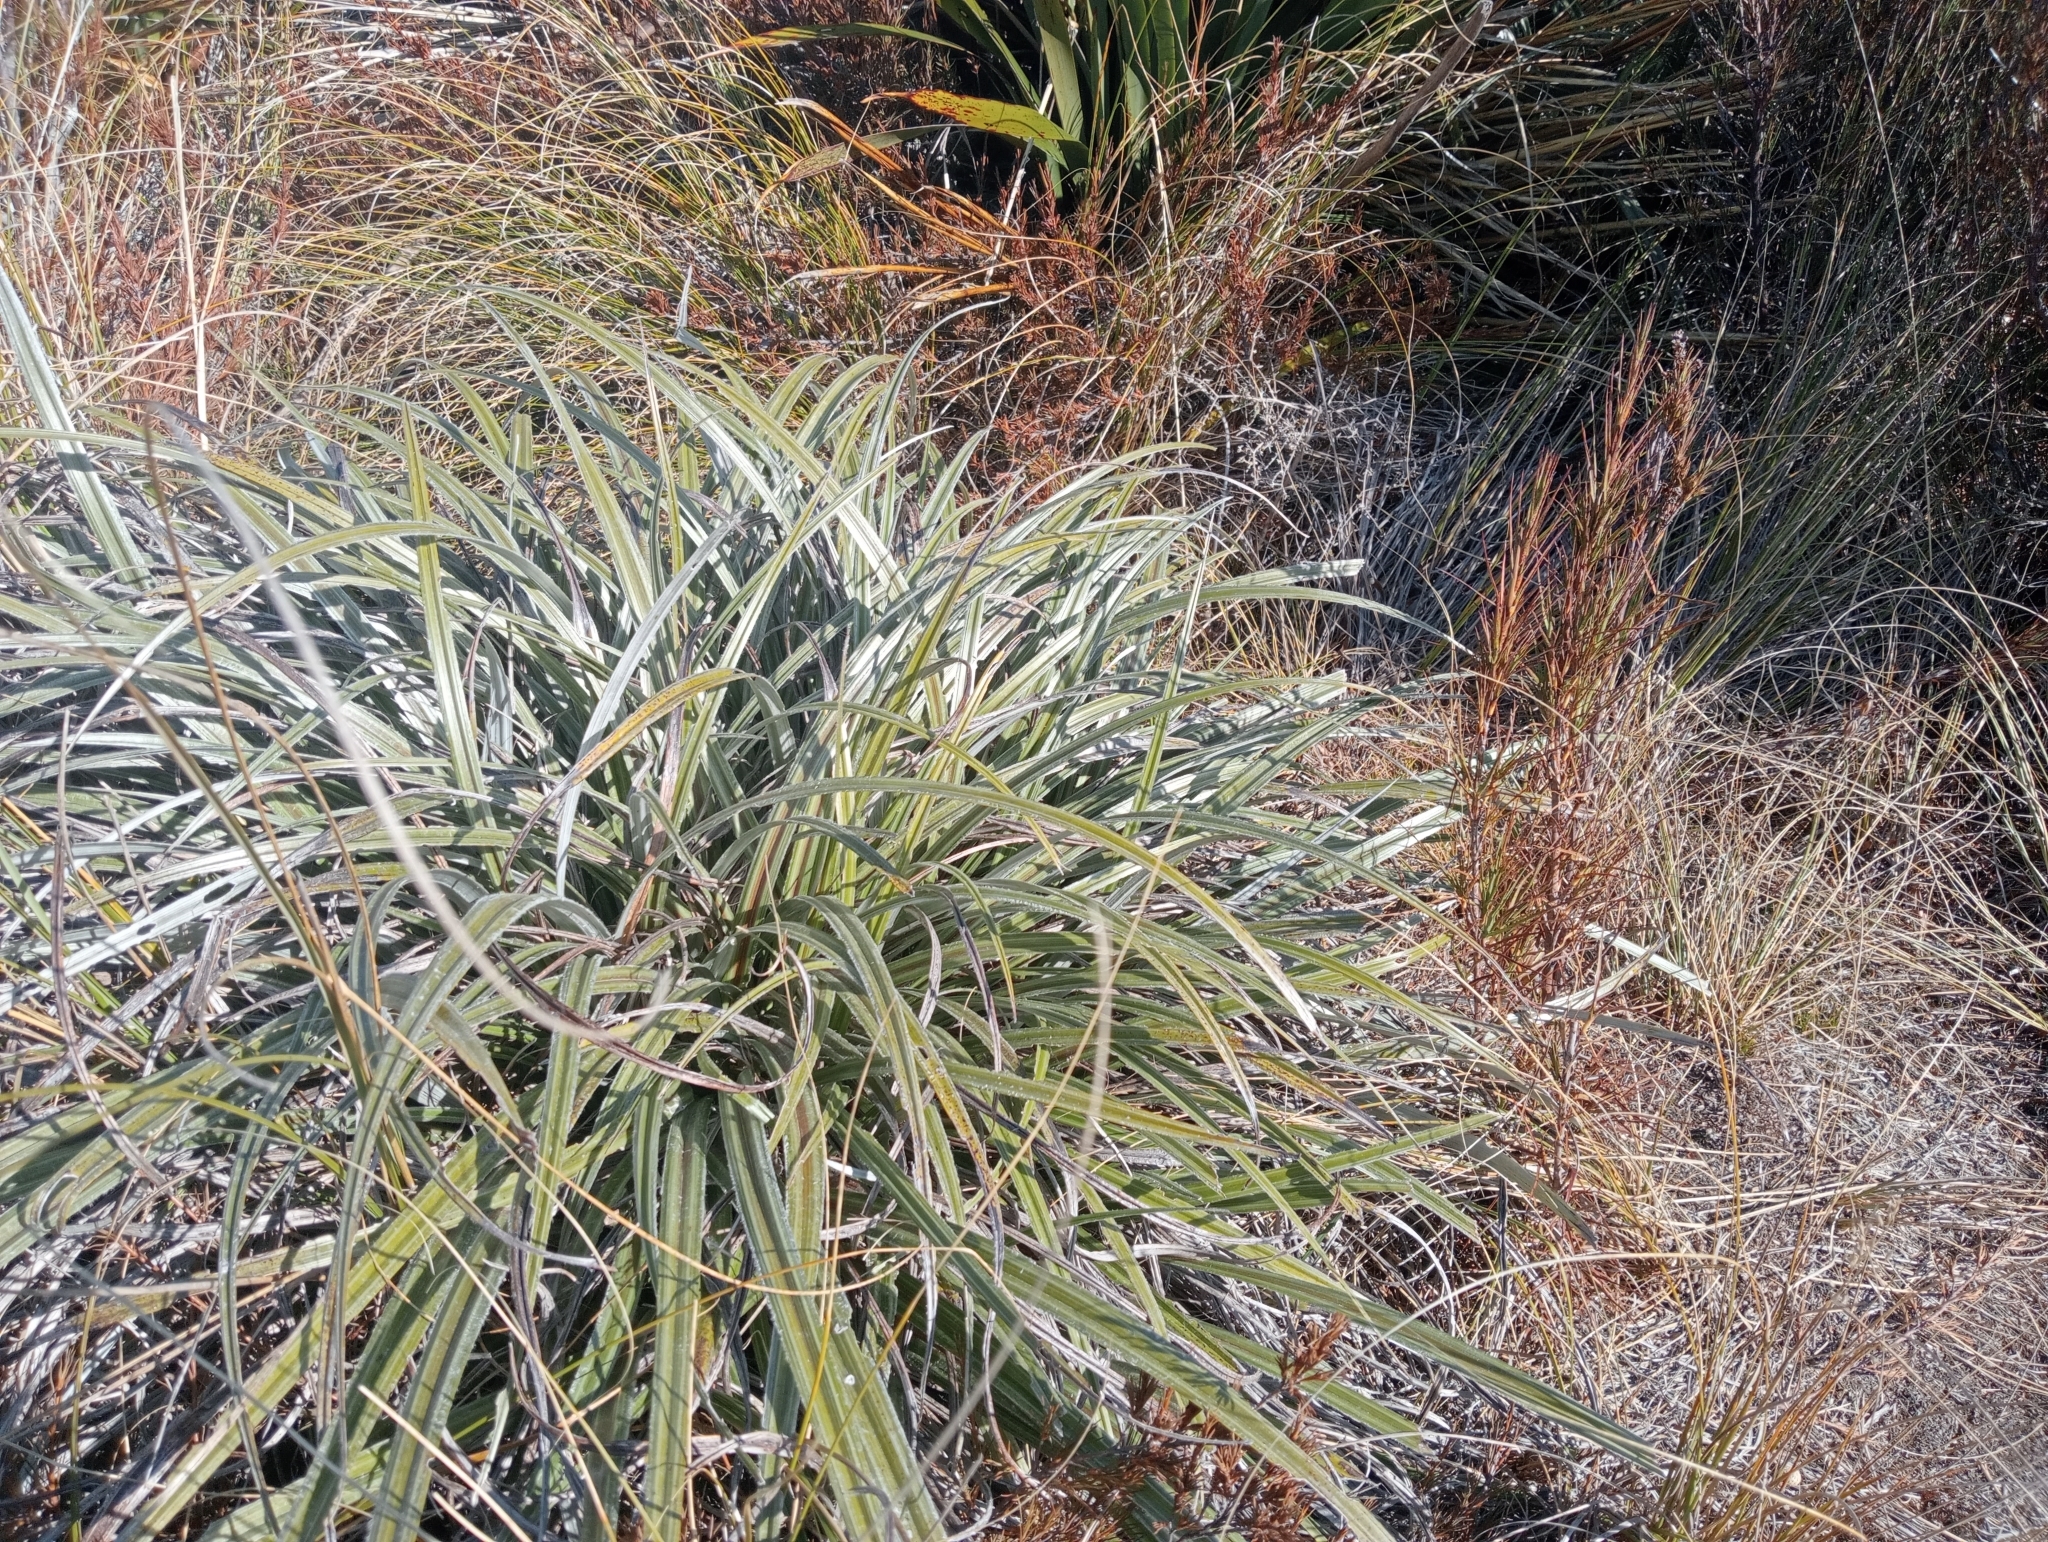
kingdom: Plantae
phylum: Tracheophyta
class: Liliopsida
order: Asparagales
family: Asteliaceae
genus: Astelia
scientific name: Astelia nervosa
